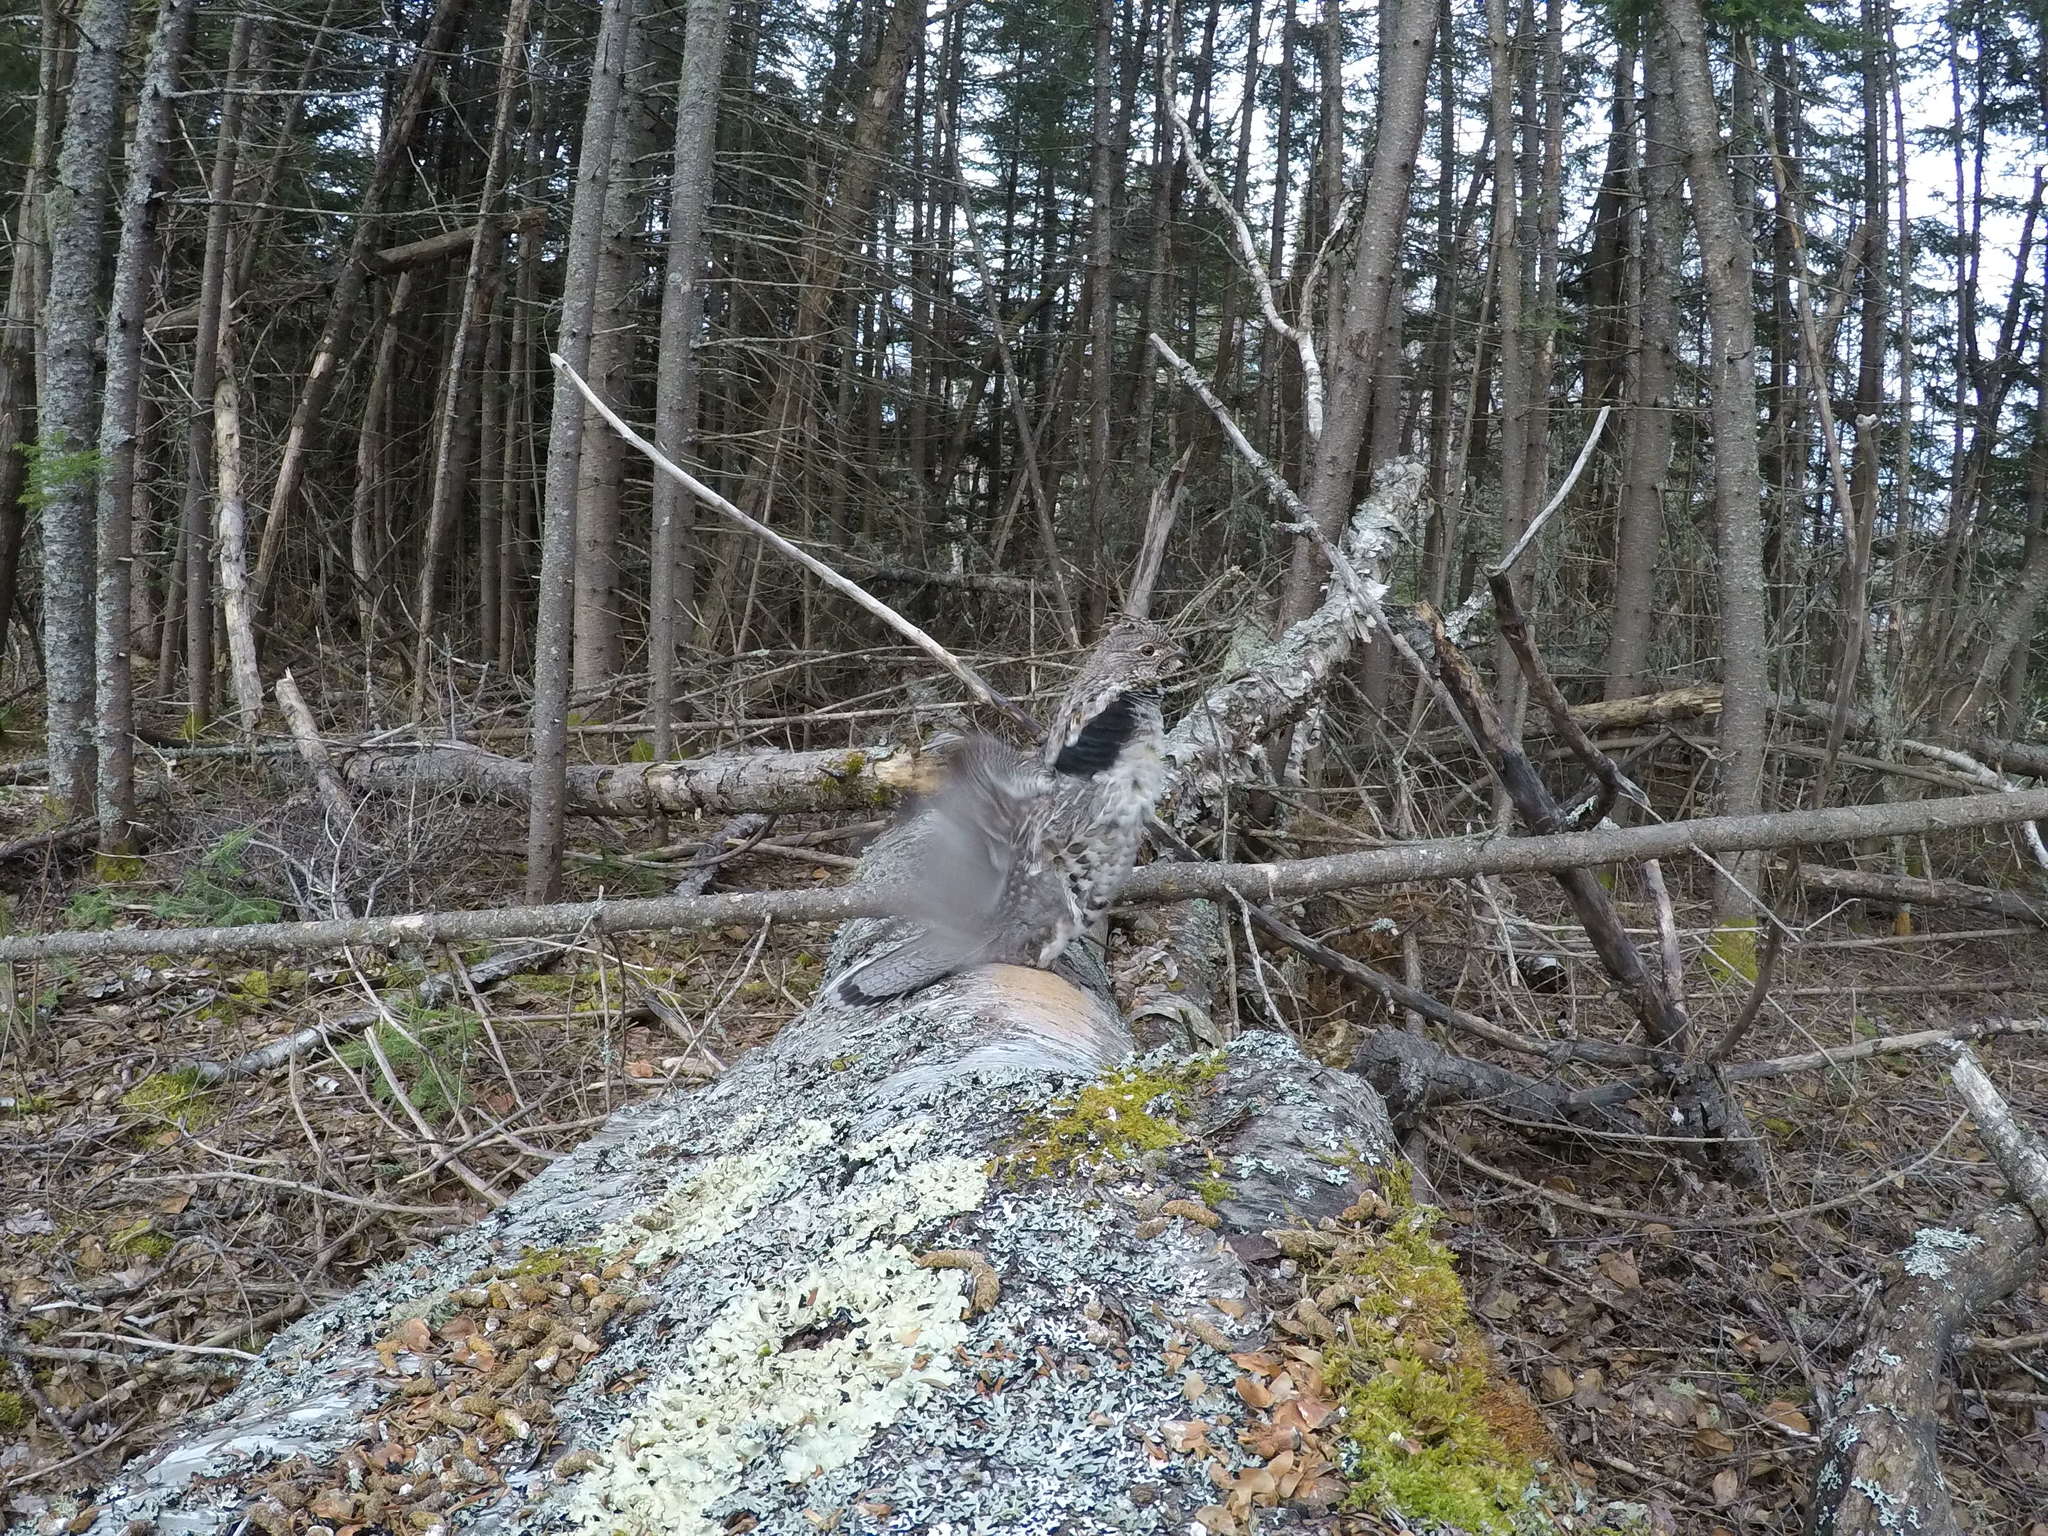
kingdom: Animalia
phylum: Chordata
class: Aves
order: Galliformes
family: Phasianidae
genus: Bonasa
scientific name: Bonasa umbellus
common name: Ruffed grouse
